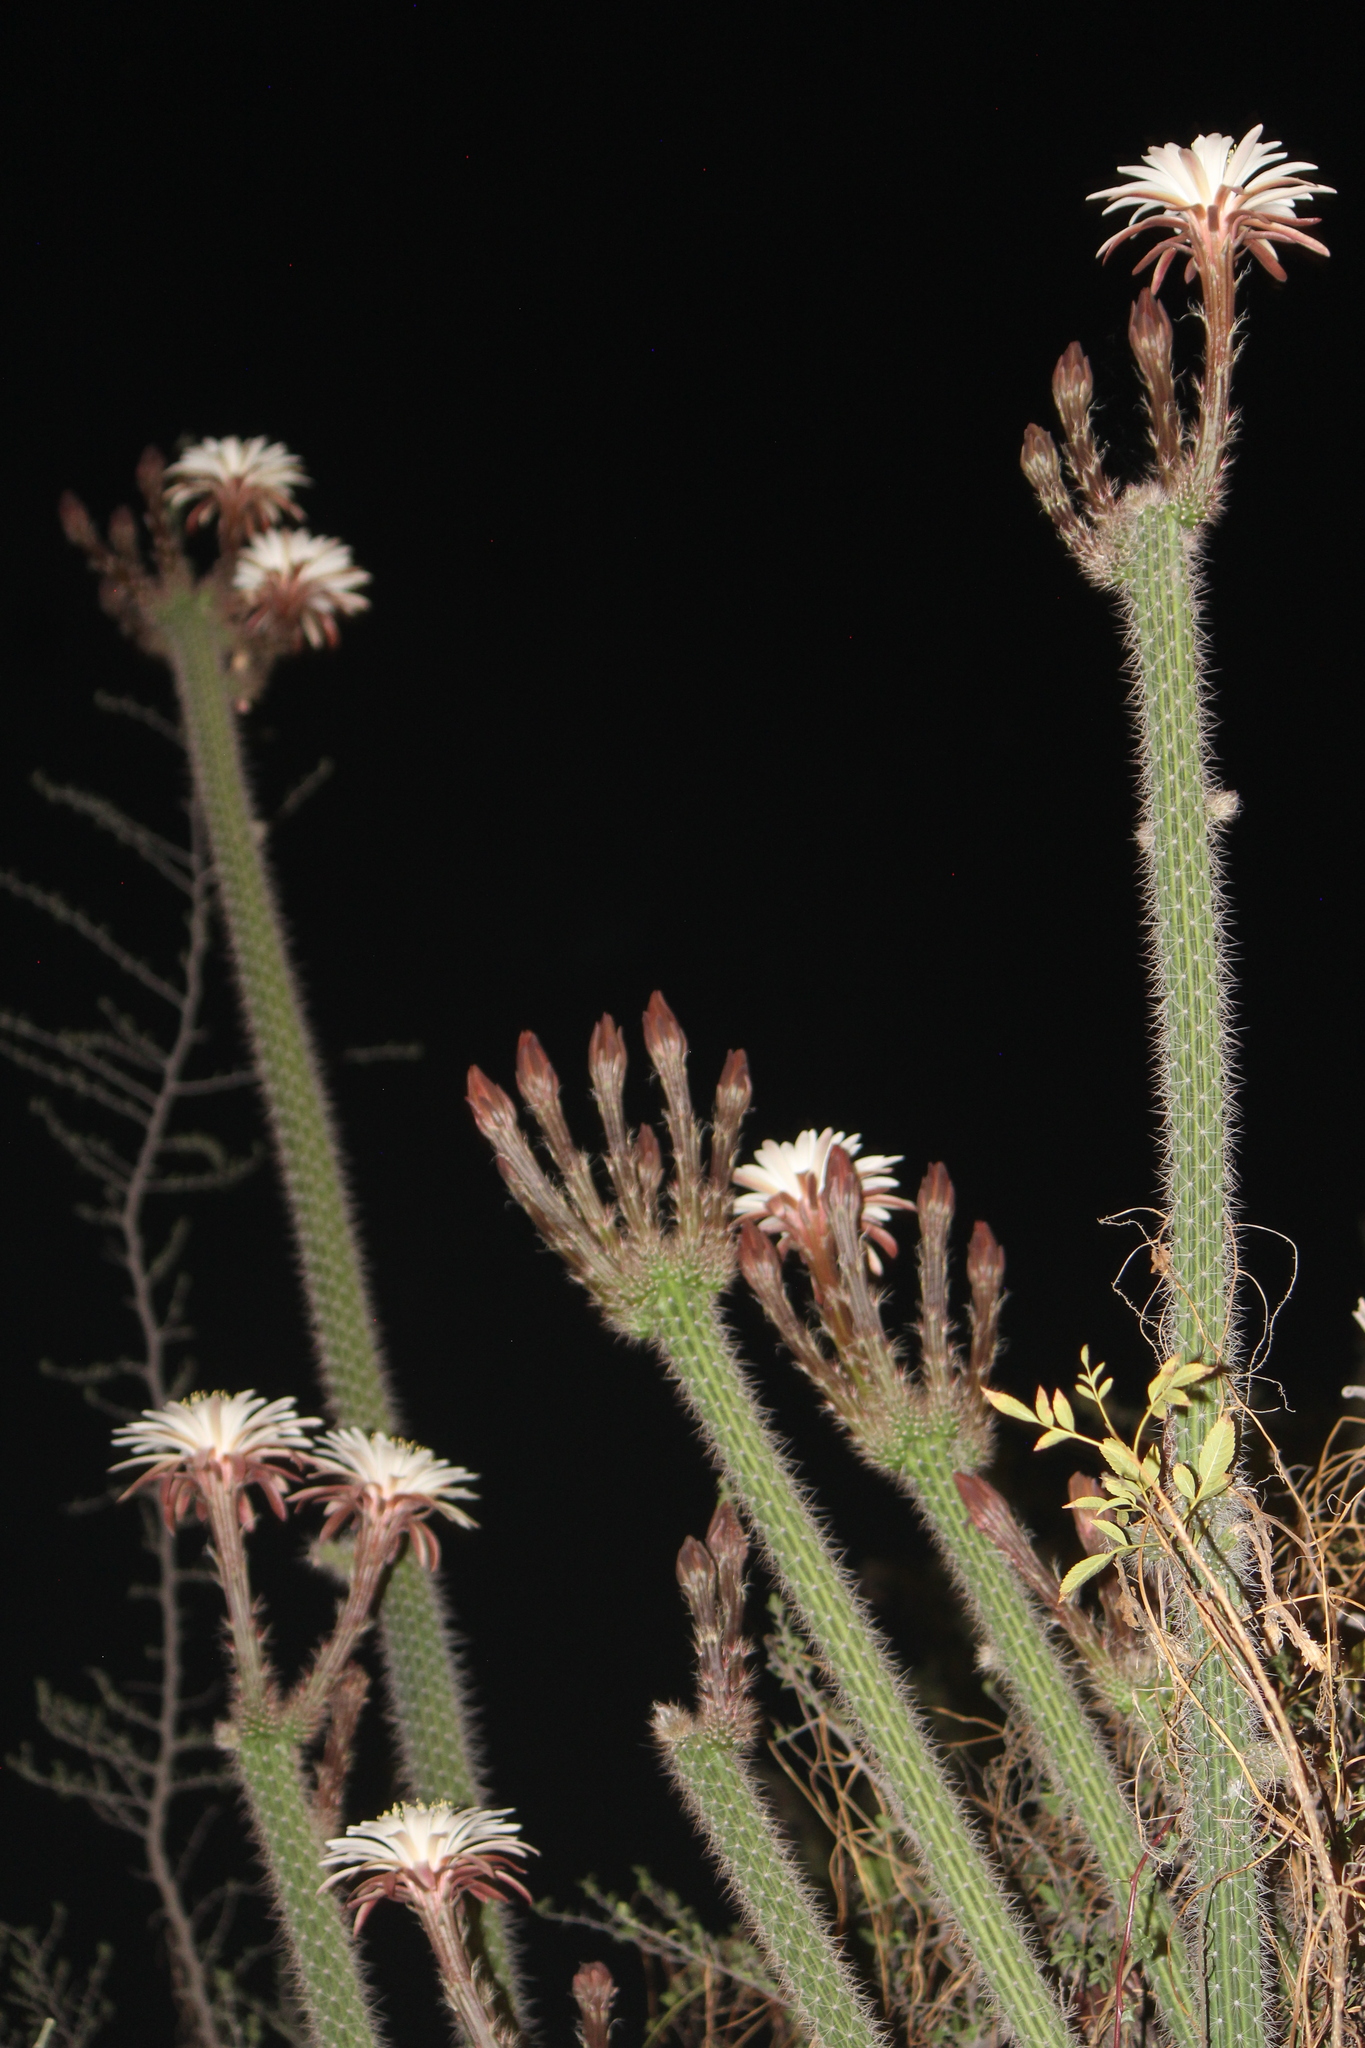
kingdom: Plantae
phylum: Tracheophyta
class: Magnoliopsida
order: Caryophyllales
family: Cactaceae
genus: Peniocereus
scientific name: Peniocereus serpentinus
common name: Serpent cactus
